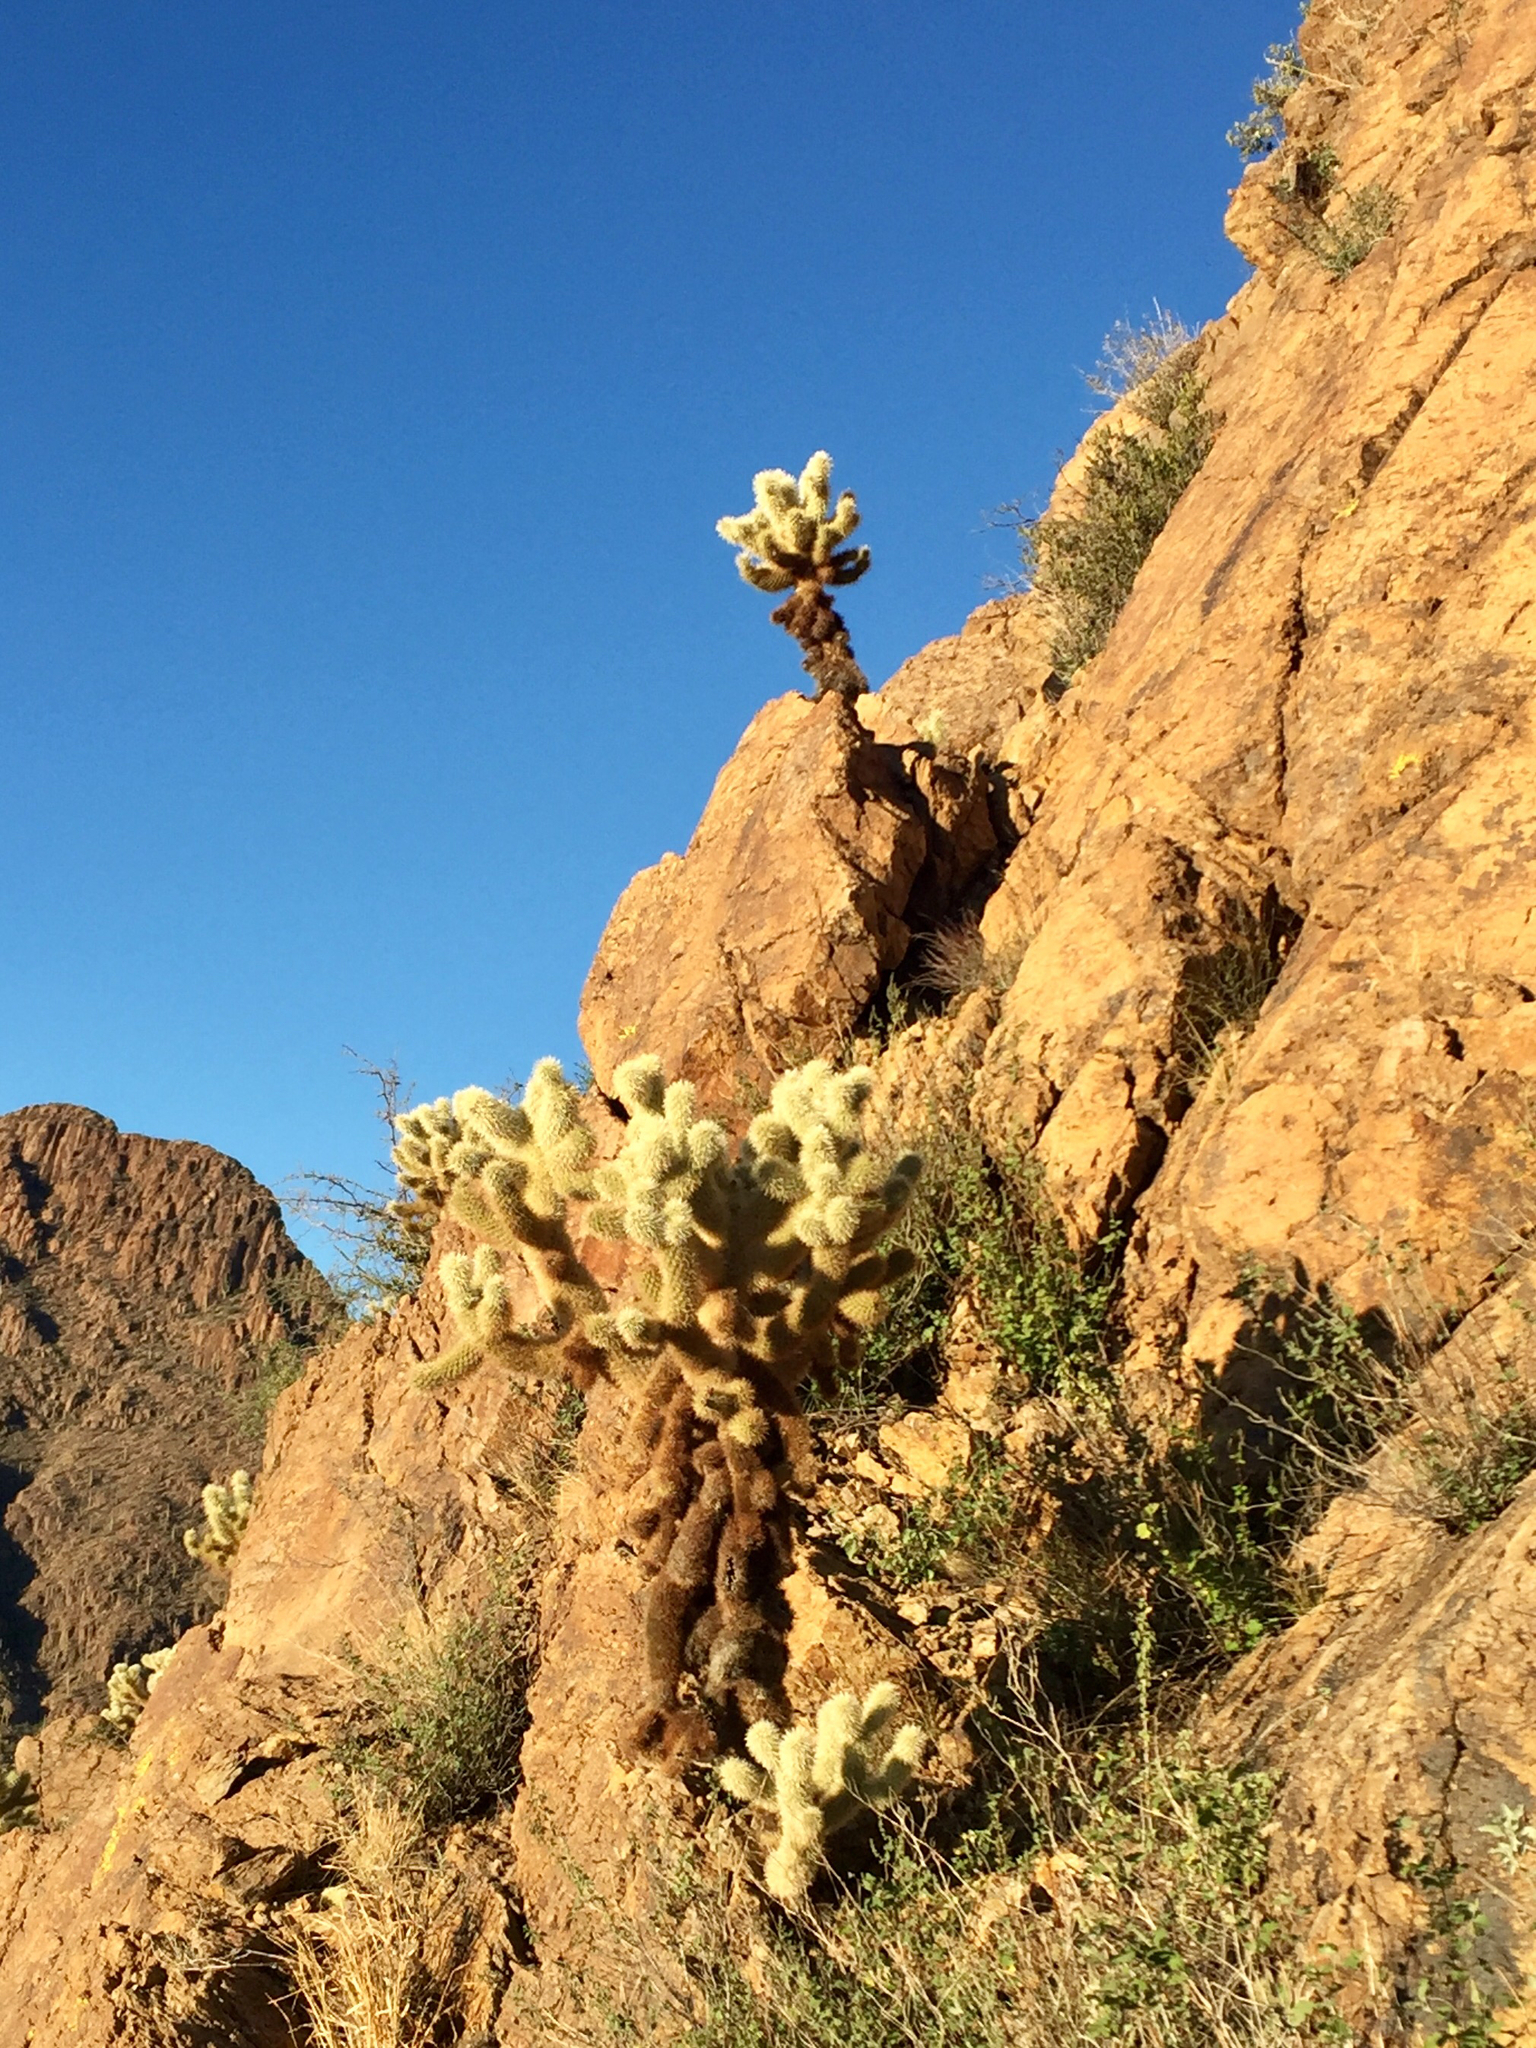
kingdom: Plantae
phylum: Tracheophyta
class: Magnoliopsida
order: Caryophyllales
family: Cactaceae
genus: Cylindropuntia
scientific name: Cylindropuntia fosbergii
